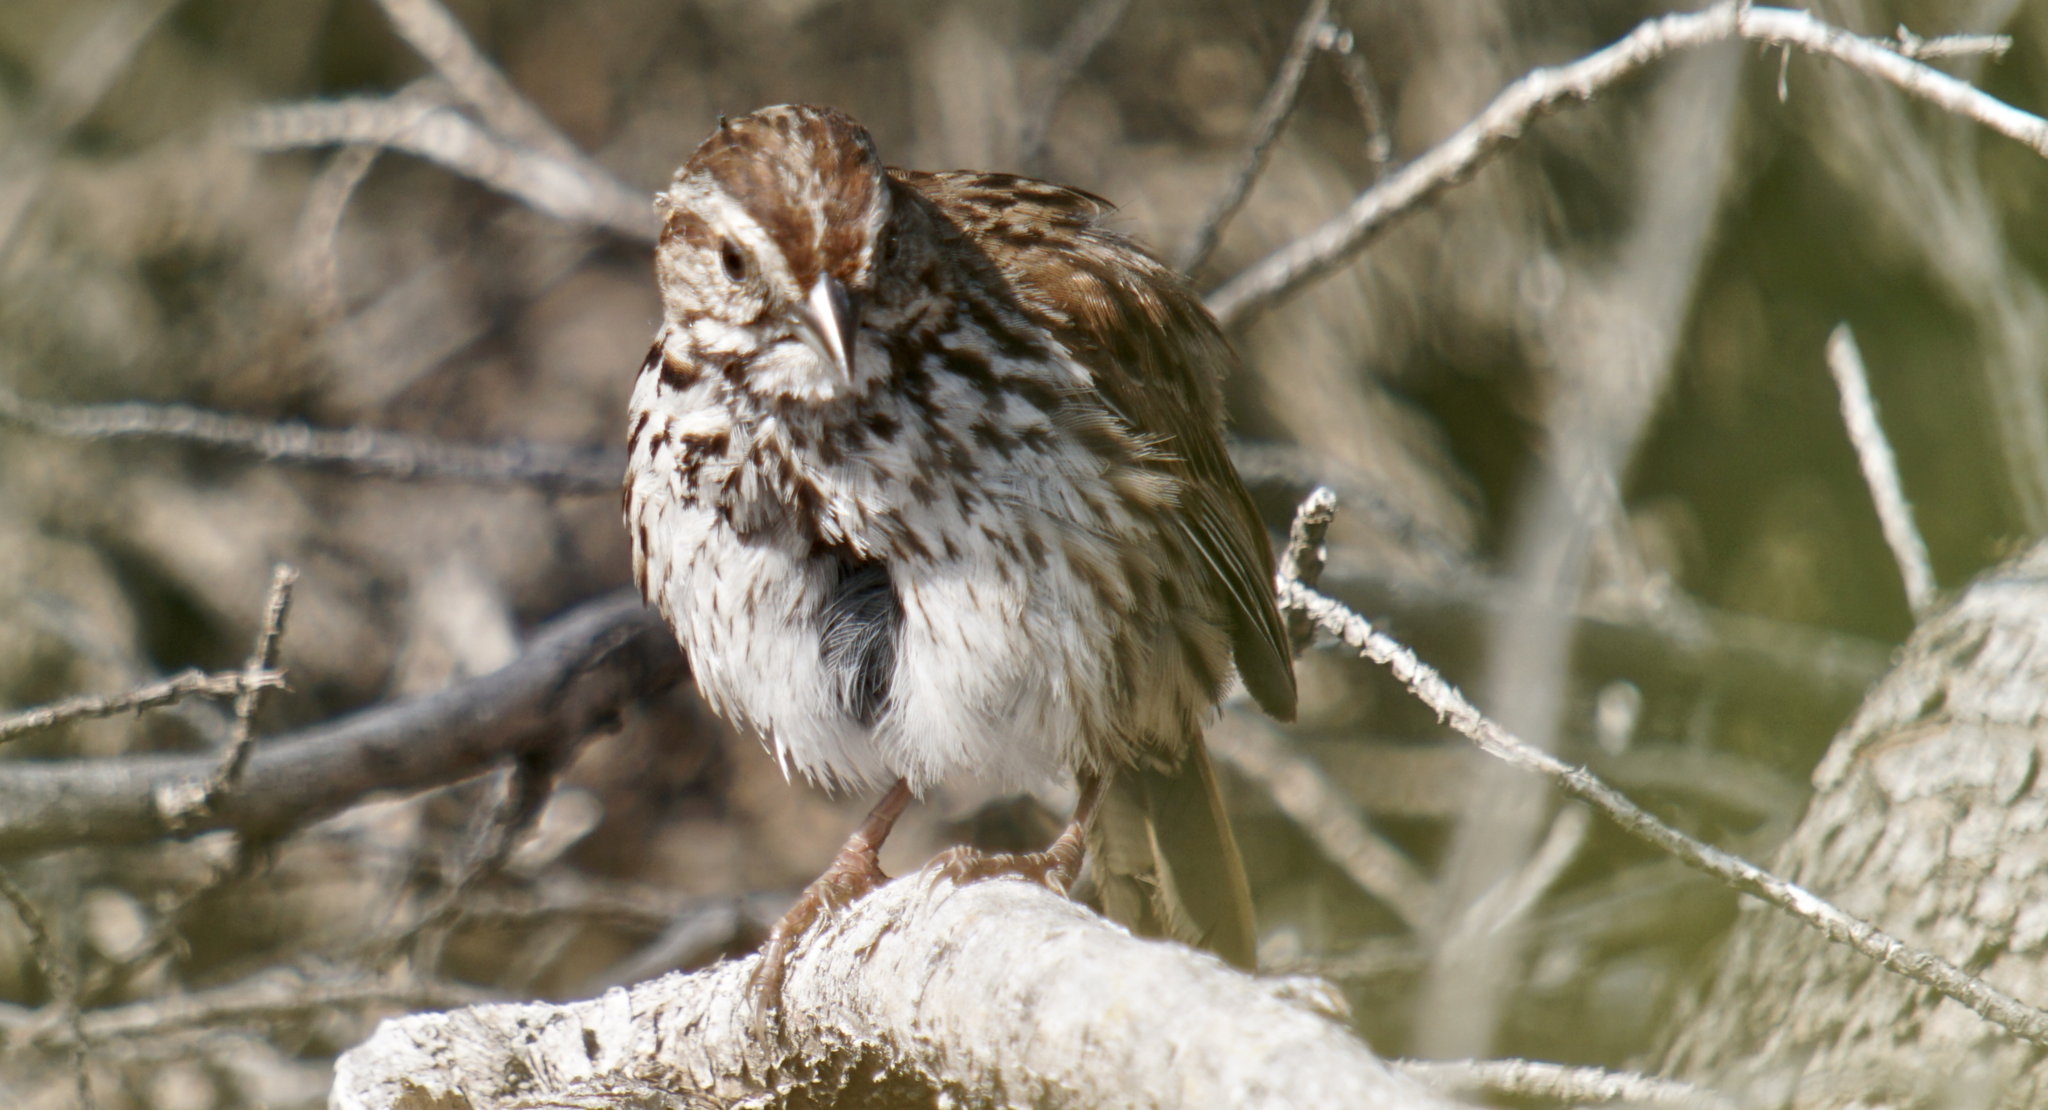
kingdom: Animalia
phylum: Chordata
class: Aves
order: Passeriformes
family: Passerellidae
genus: Melospiza
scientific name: Melospiza melodia
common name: Song sparrow
